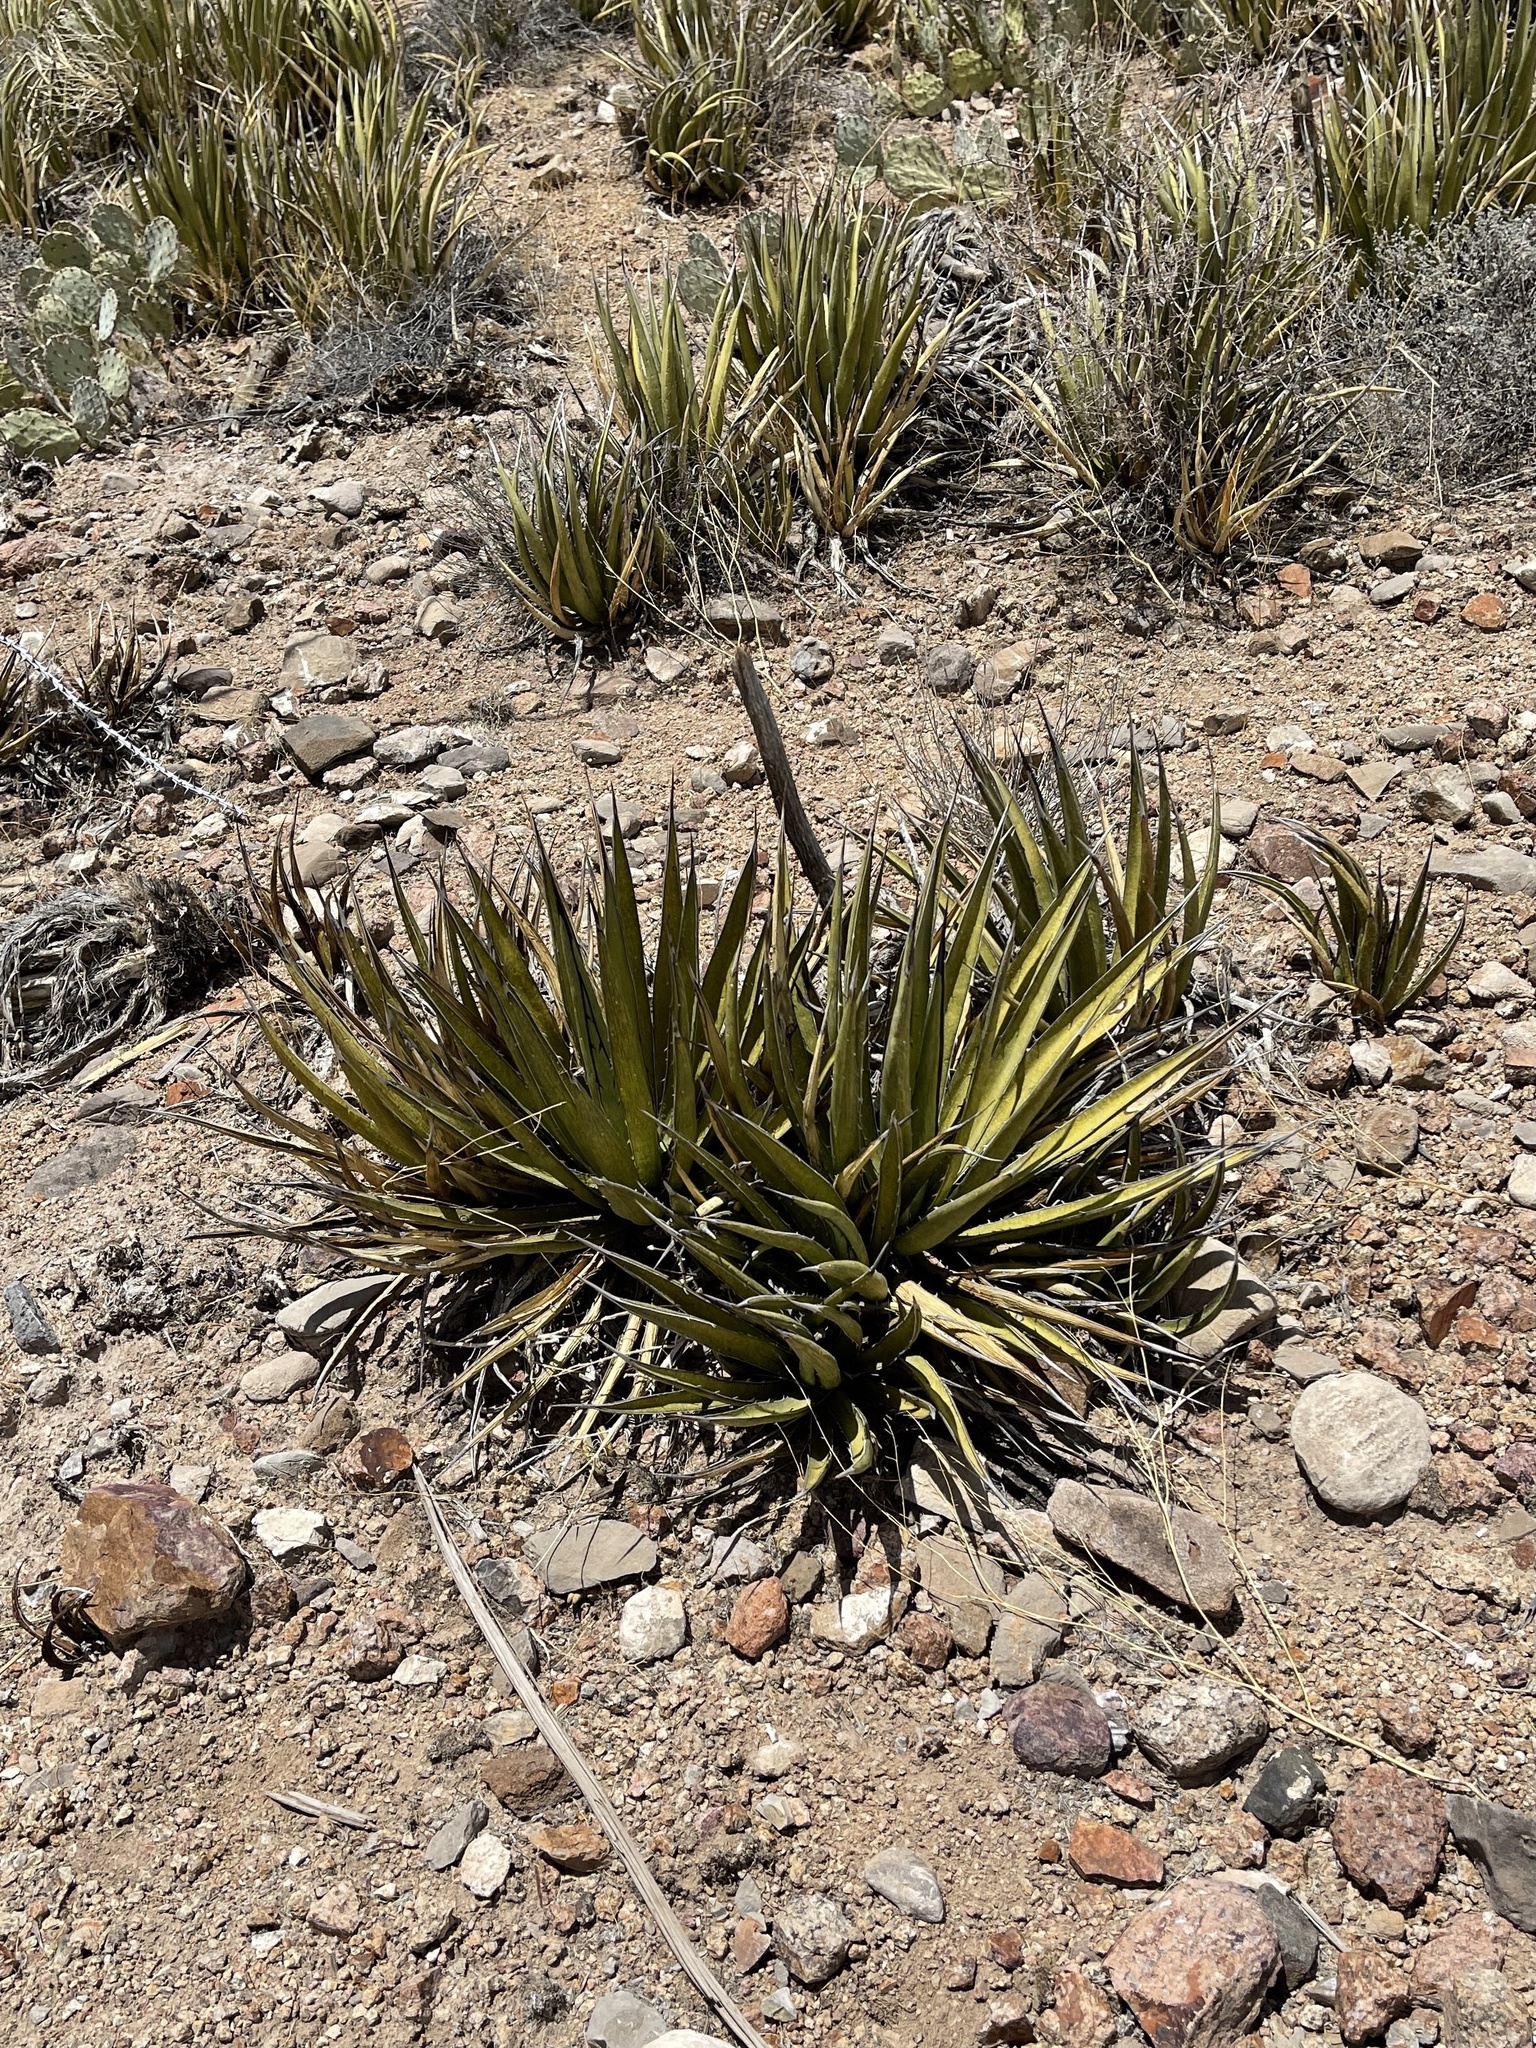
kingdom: Plantae
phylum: Tracheophyta
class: Liliopsida
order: Asparagales
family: Asparagaceae
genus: Agave
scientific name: Agave lechuguilla
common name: Lecheguilla agave
